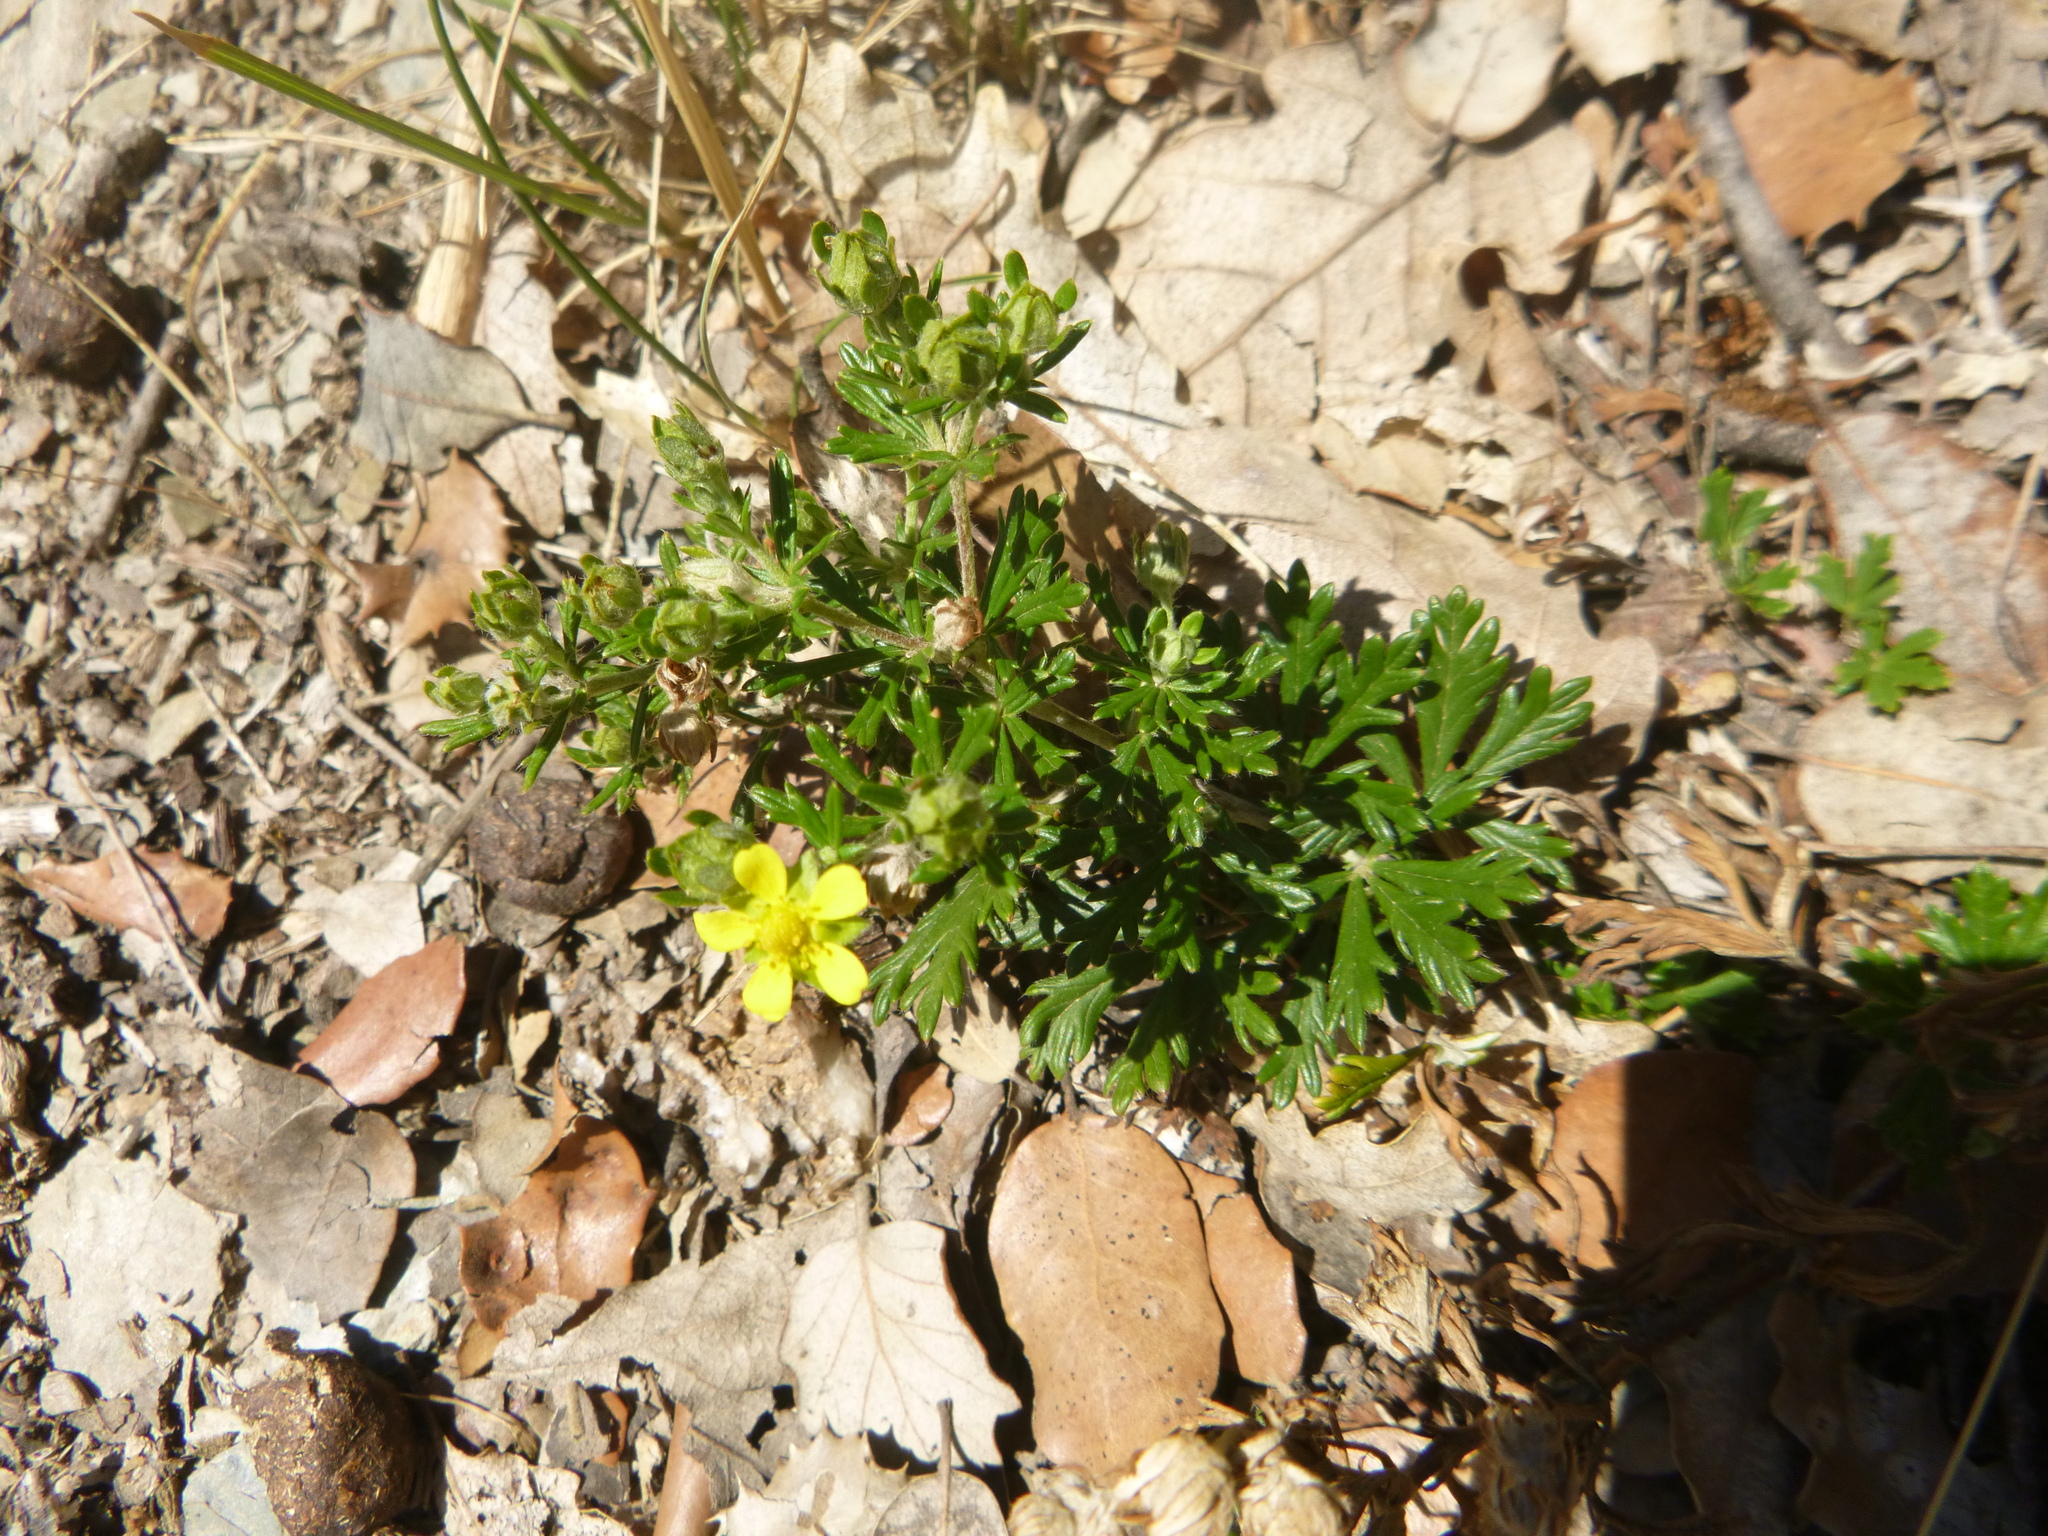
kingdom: Plantae
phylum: Tracheophyta
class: Magnoliopsida
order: Rosales
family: Rosaceae
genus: Potentilla
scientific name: Potentilla argentea
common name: Hoary cinquefoil
